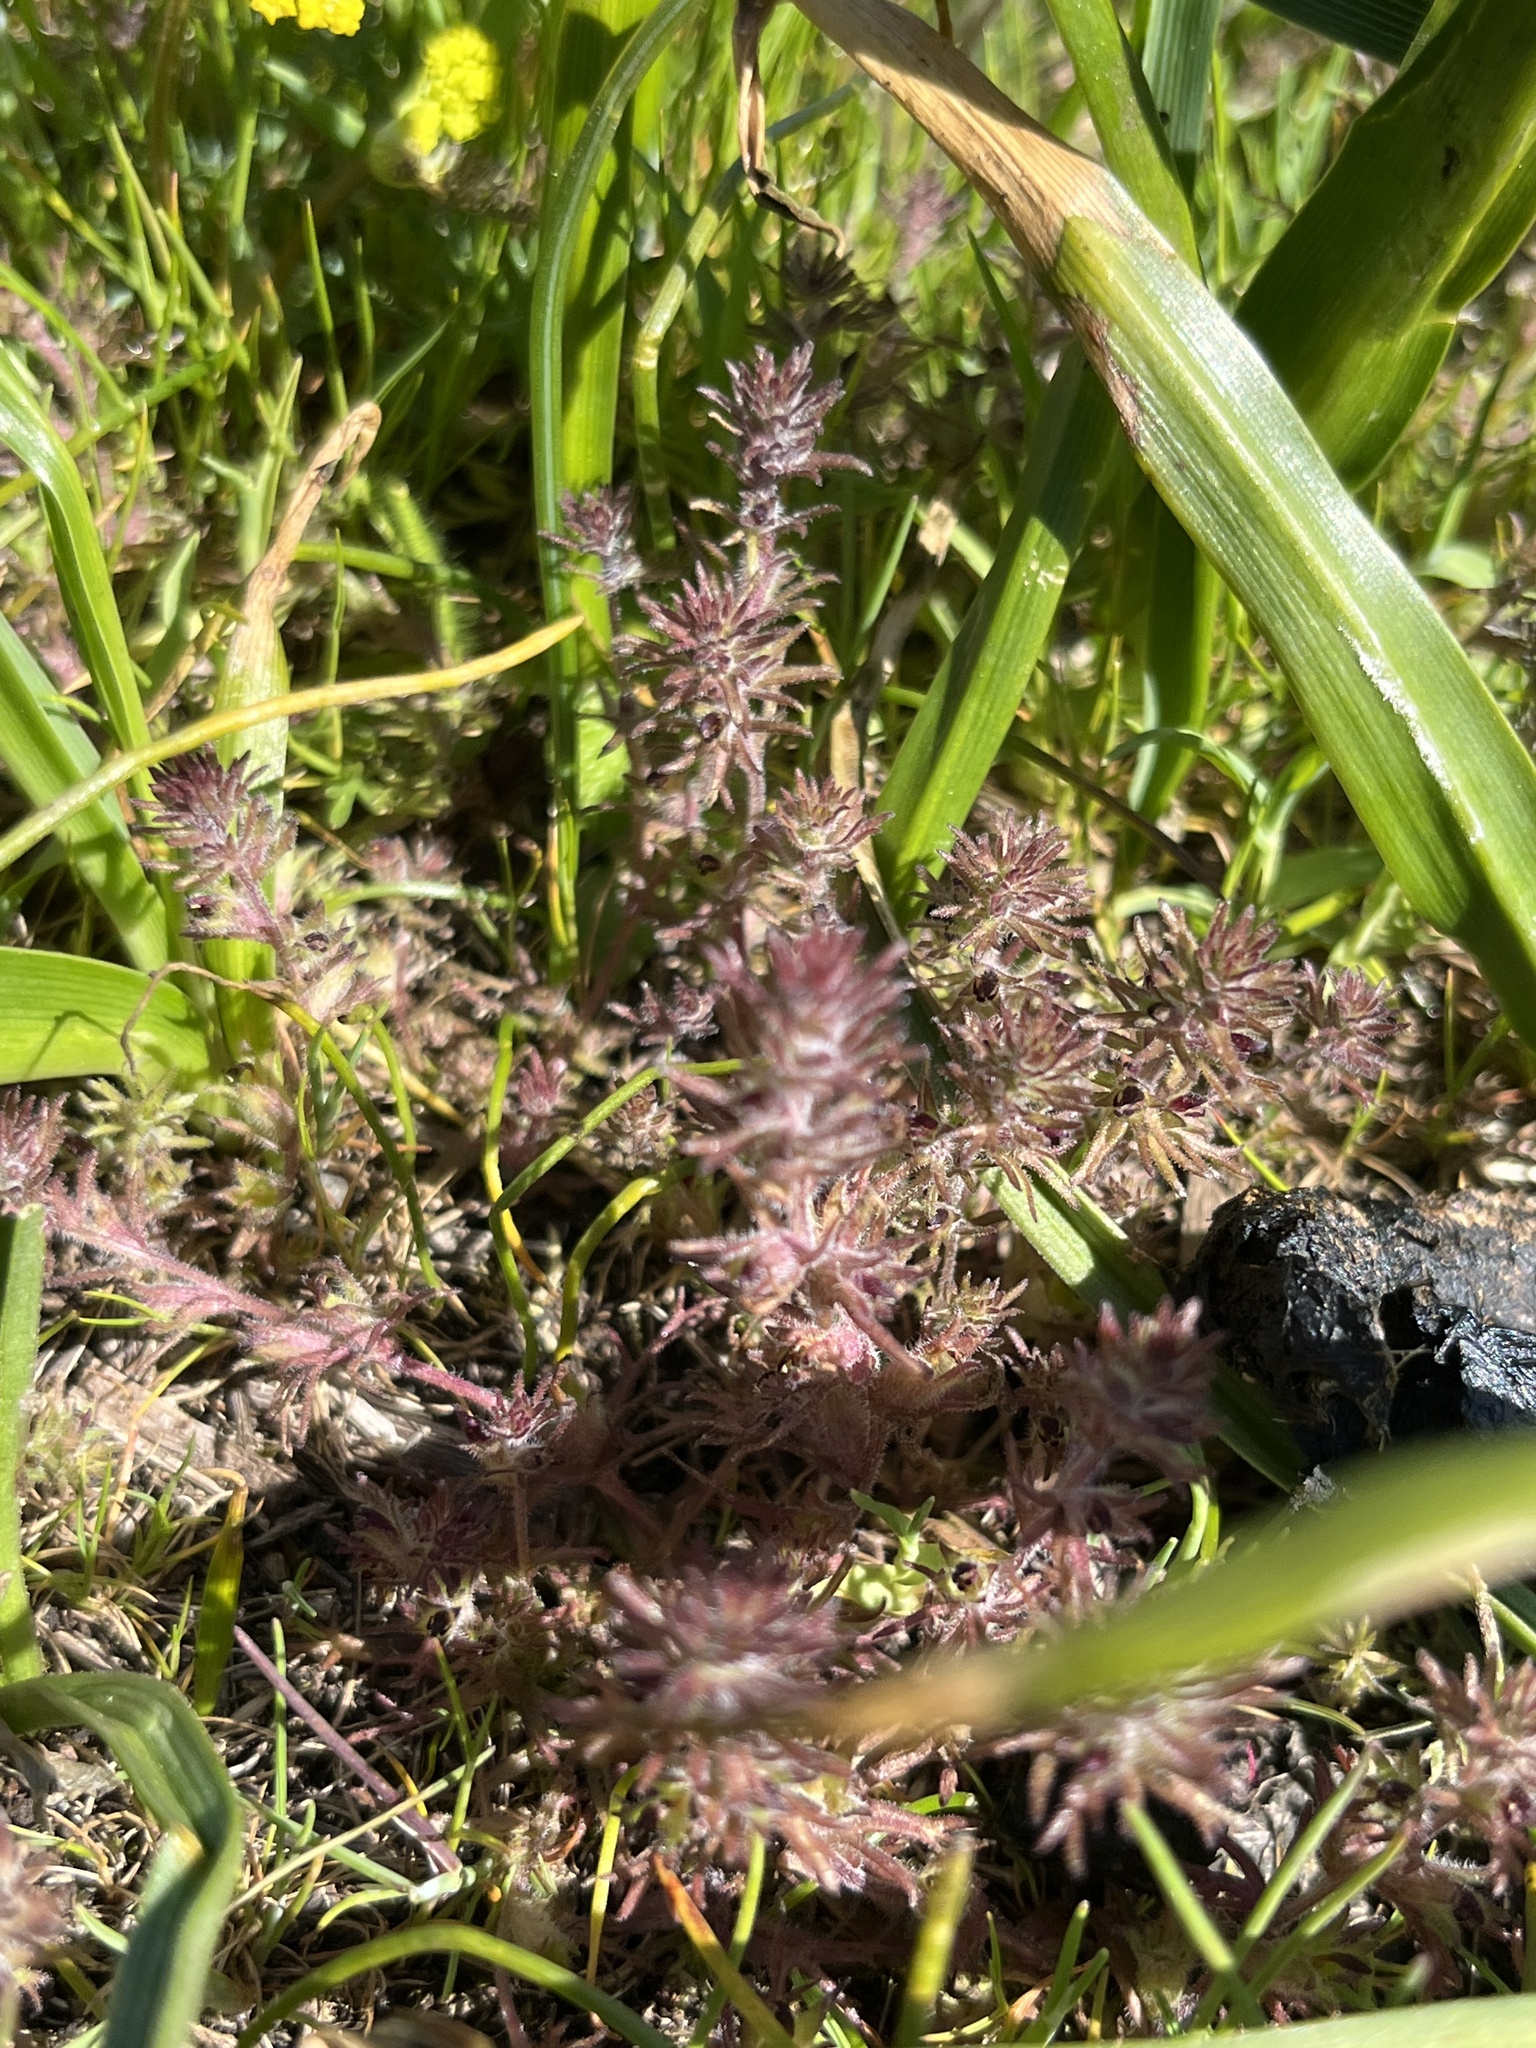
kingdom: Plantae
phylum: Tracheophyta
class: Magnoliopsida
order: Lamiales
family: Orobanchaceae
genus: Triphysaria
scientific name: Triphysaria pusilla
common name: Dwarf false owl-clover
